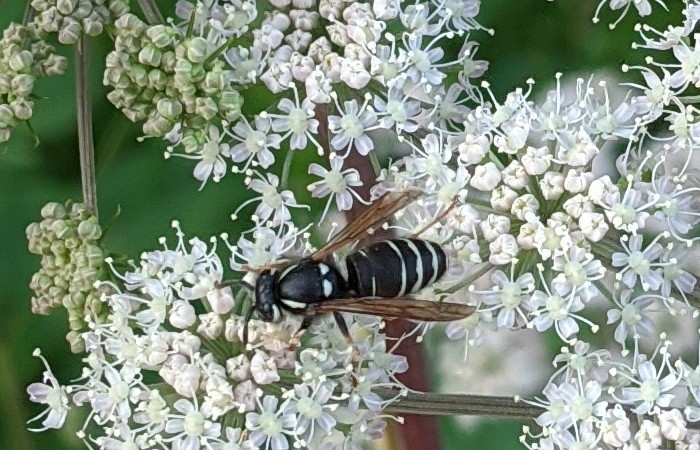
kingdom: Animalia
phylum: Arthropoda
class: Insecta
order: Hymenoptera
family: Vespidae
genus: Vespula
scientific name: Vespula consobrina
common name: Blackjacket
